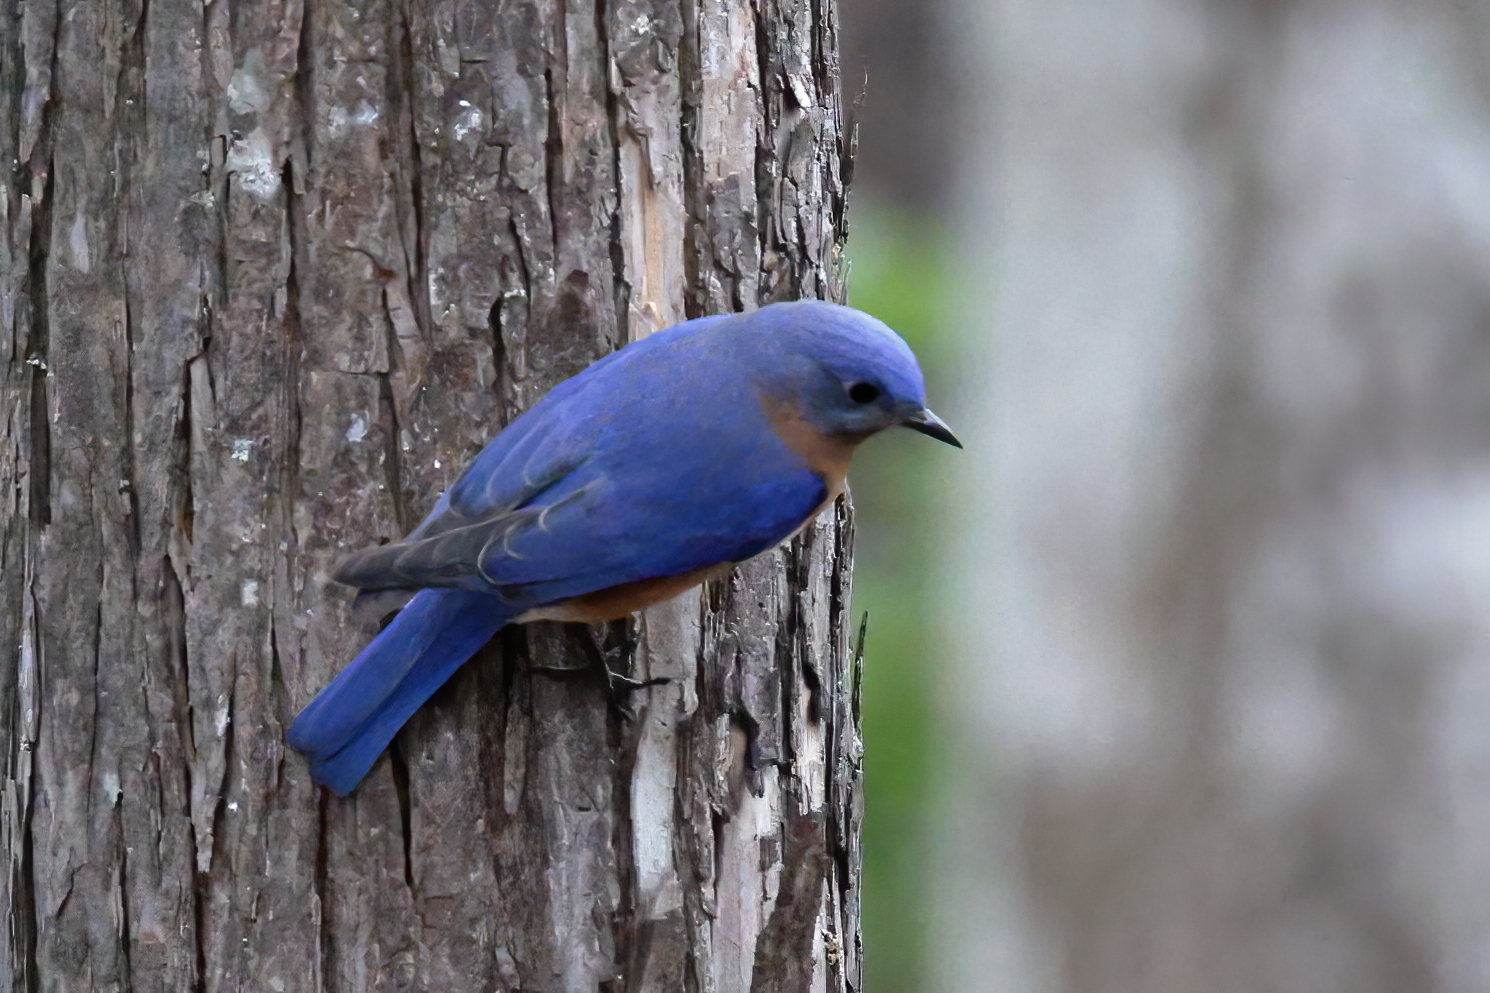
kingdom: Animalia
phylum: Chordata
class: Aves
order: Passeriformes
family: Turdidae
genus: Sialia
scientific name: Sialia sialis
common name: Eastern bluebird
